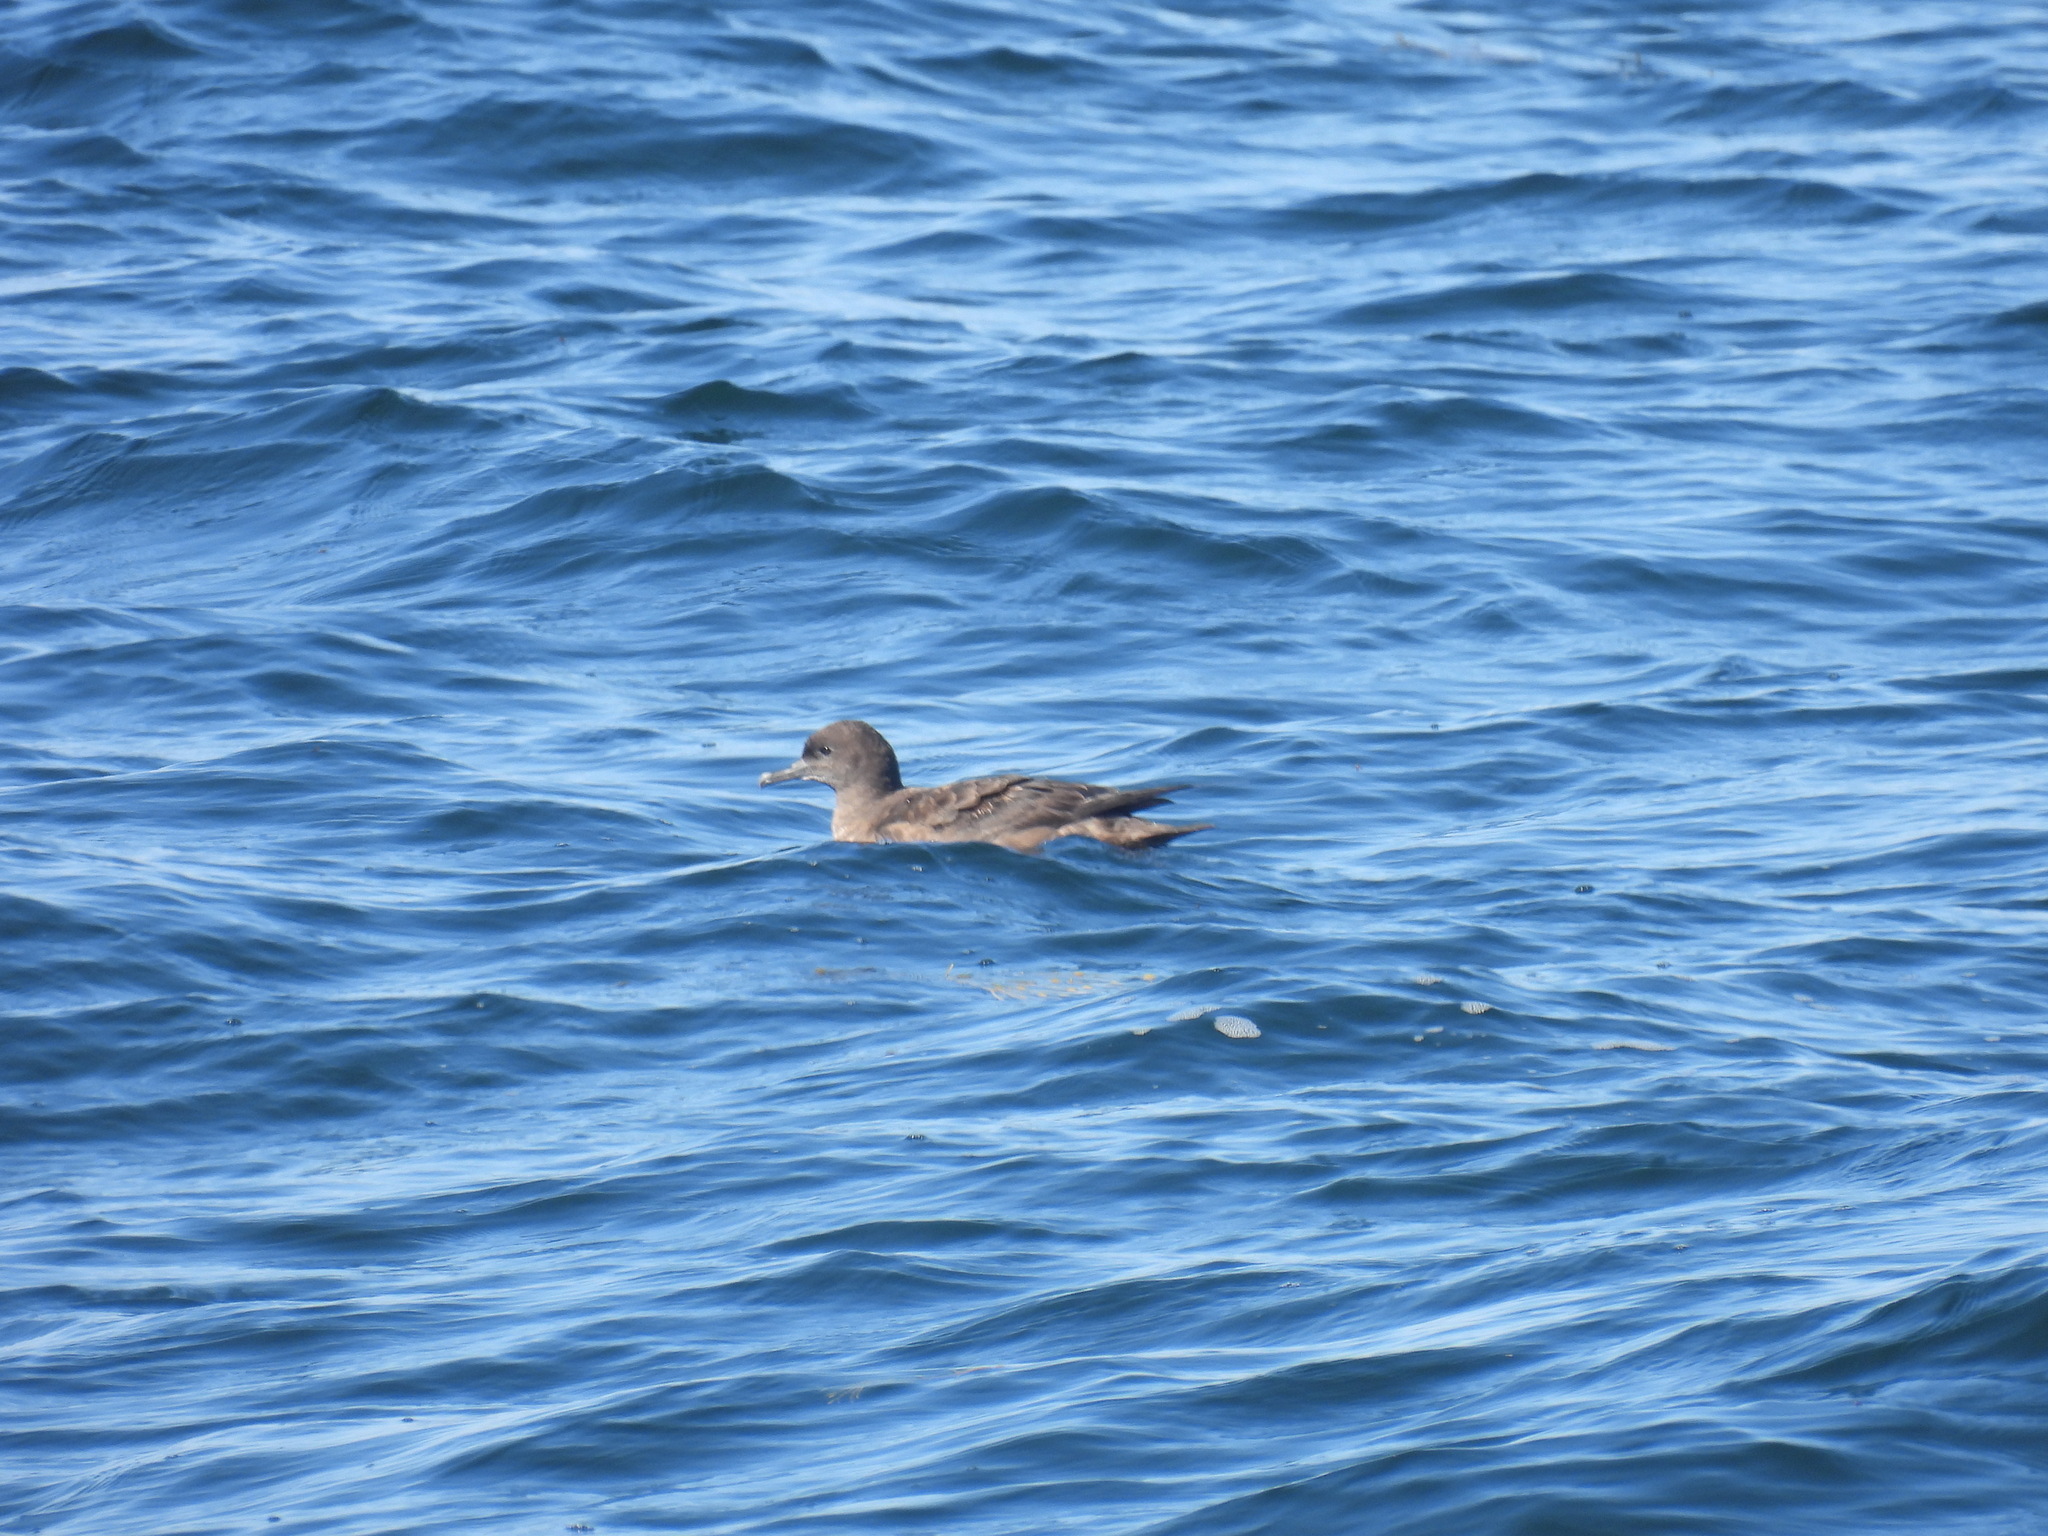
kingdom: Animalia
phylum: Chordata
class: Aves
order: Procellariiformes
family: Procellariidae
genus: Puffinus
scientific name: Puffinus griseus
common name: Sooty shearwater
